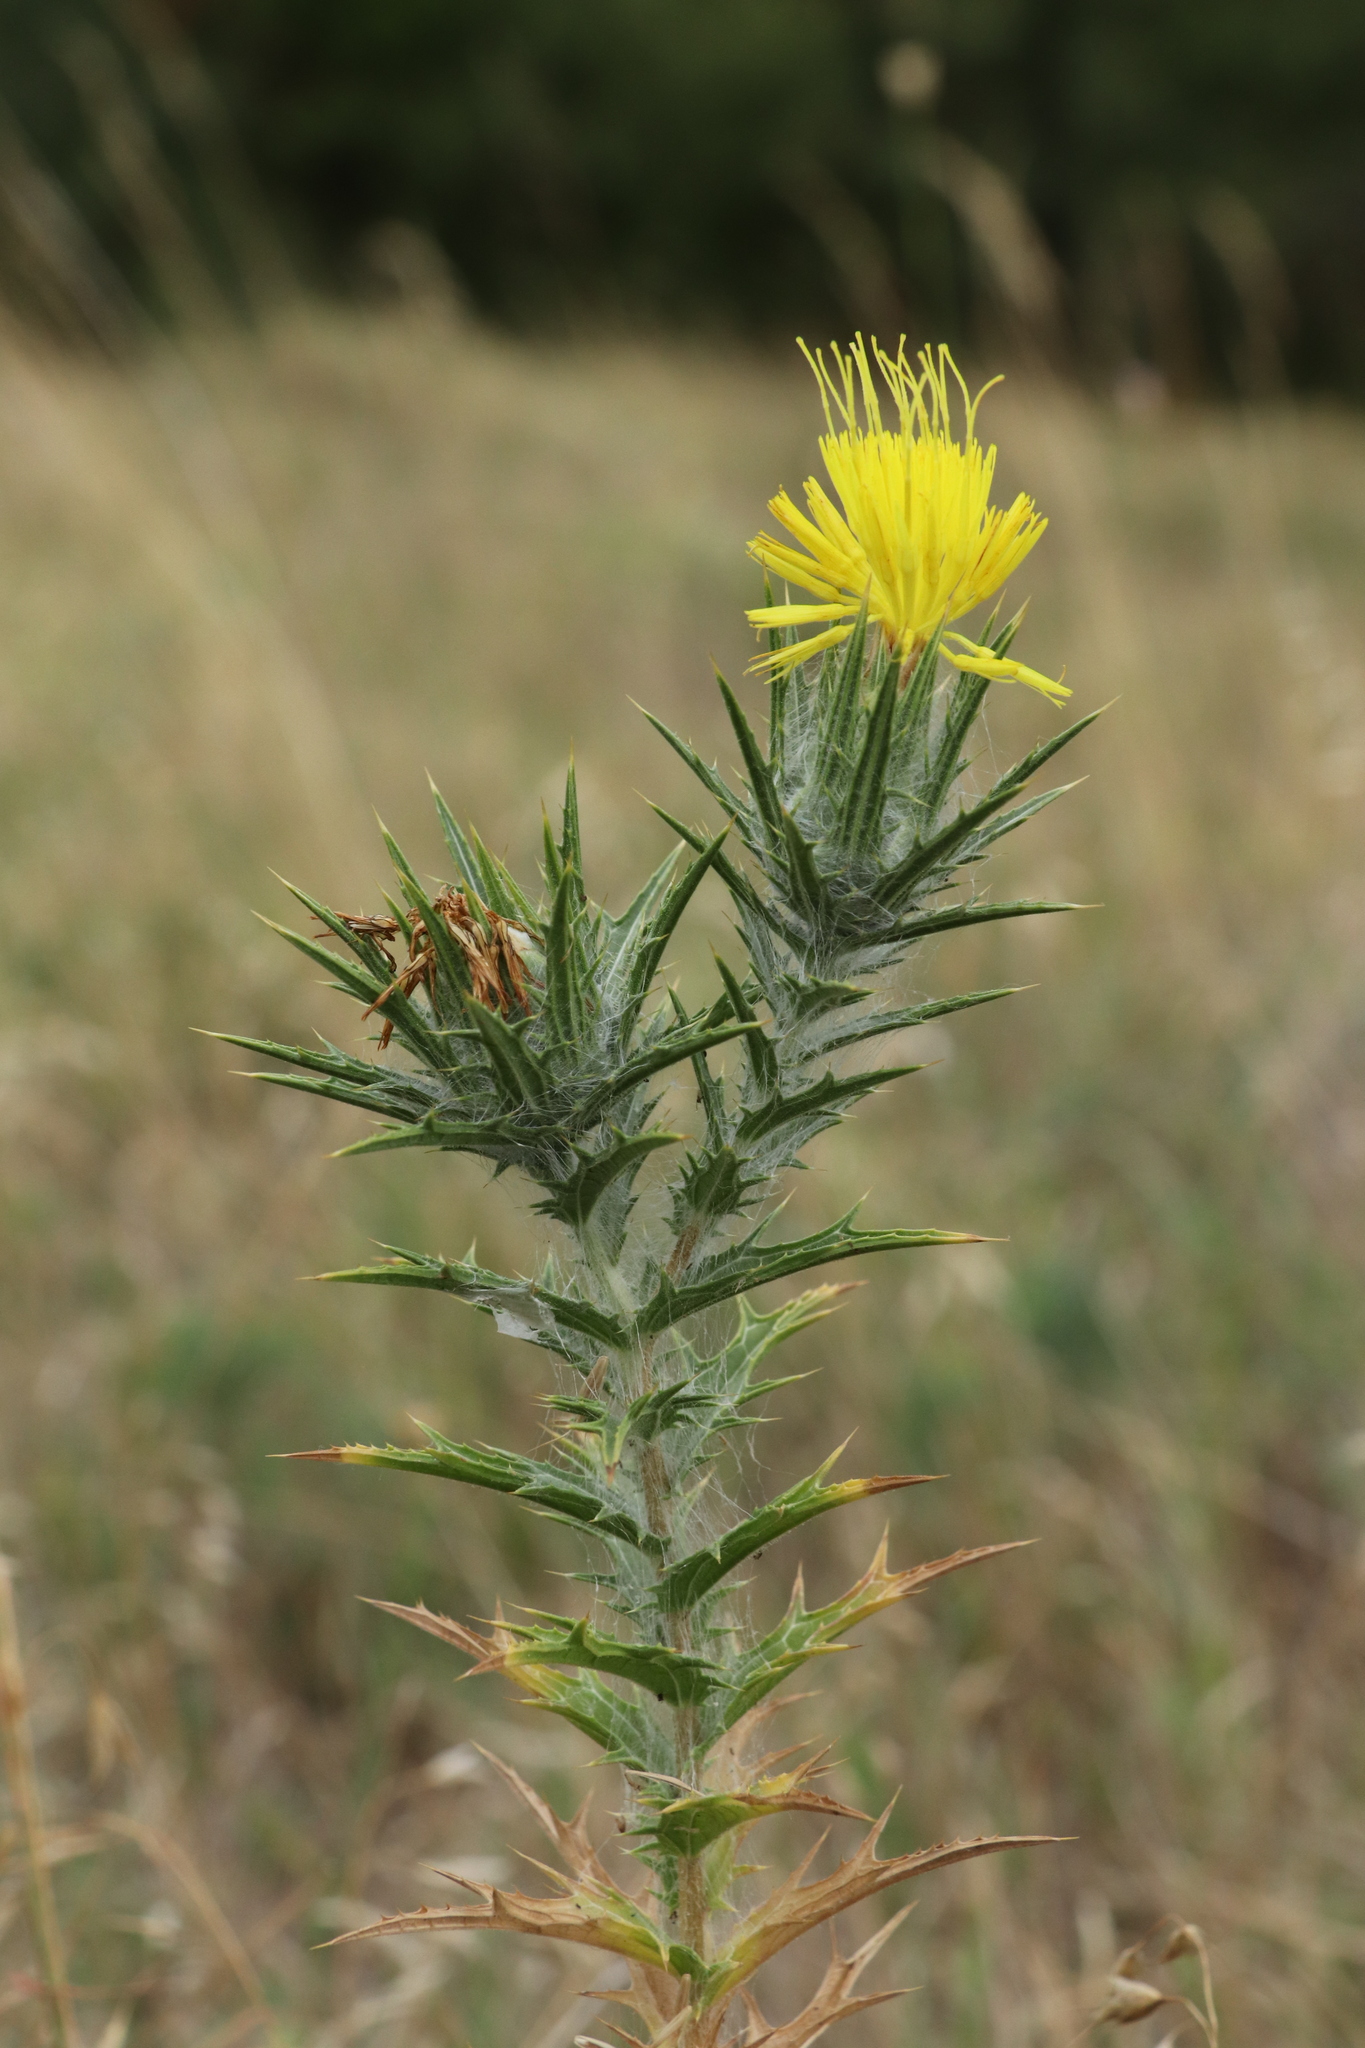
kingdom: Plantae
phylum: Tracheophyta
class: Magnoliopsida
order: Asterales
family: Asteraceae
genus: Carthamus
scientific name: Carthamus lanatus
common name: Downy safflower
